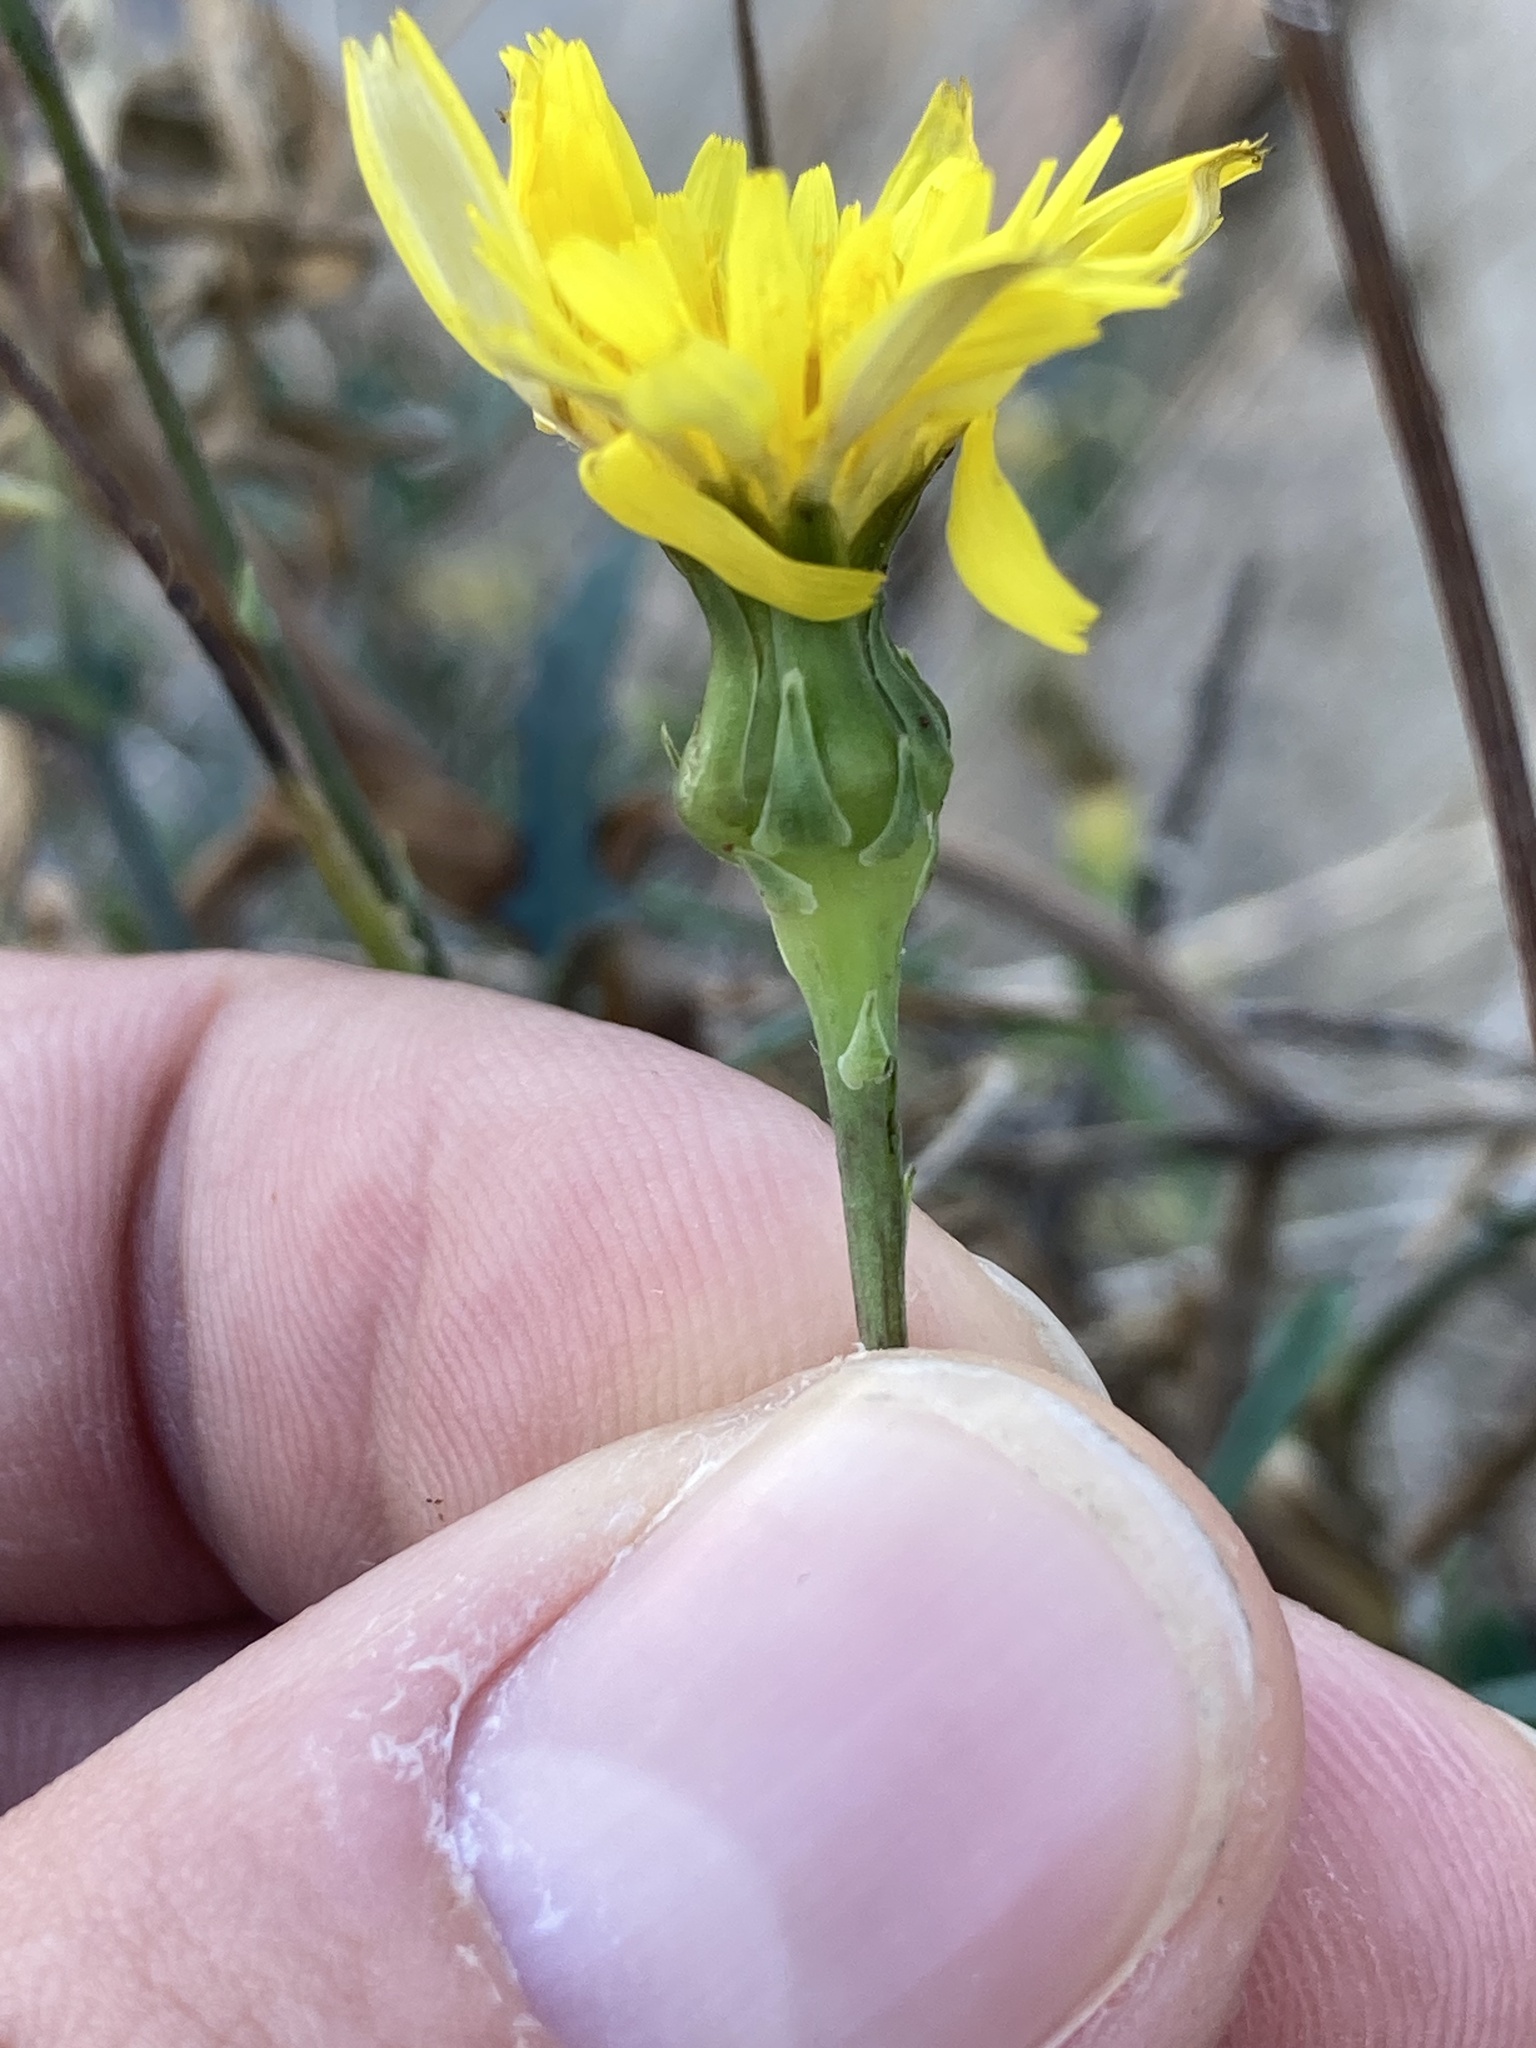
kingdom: Plantae
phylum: Tracheophyta
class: Magnoliopsida
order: Asterales
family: Asteraceae
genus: Reichardia
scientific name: Reichardia picroides
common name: Common brighteyes
